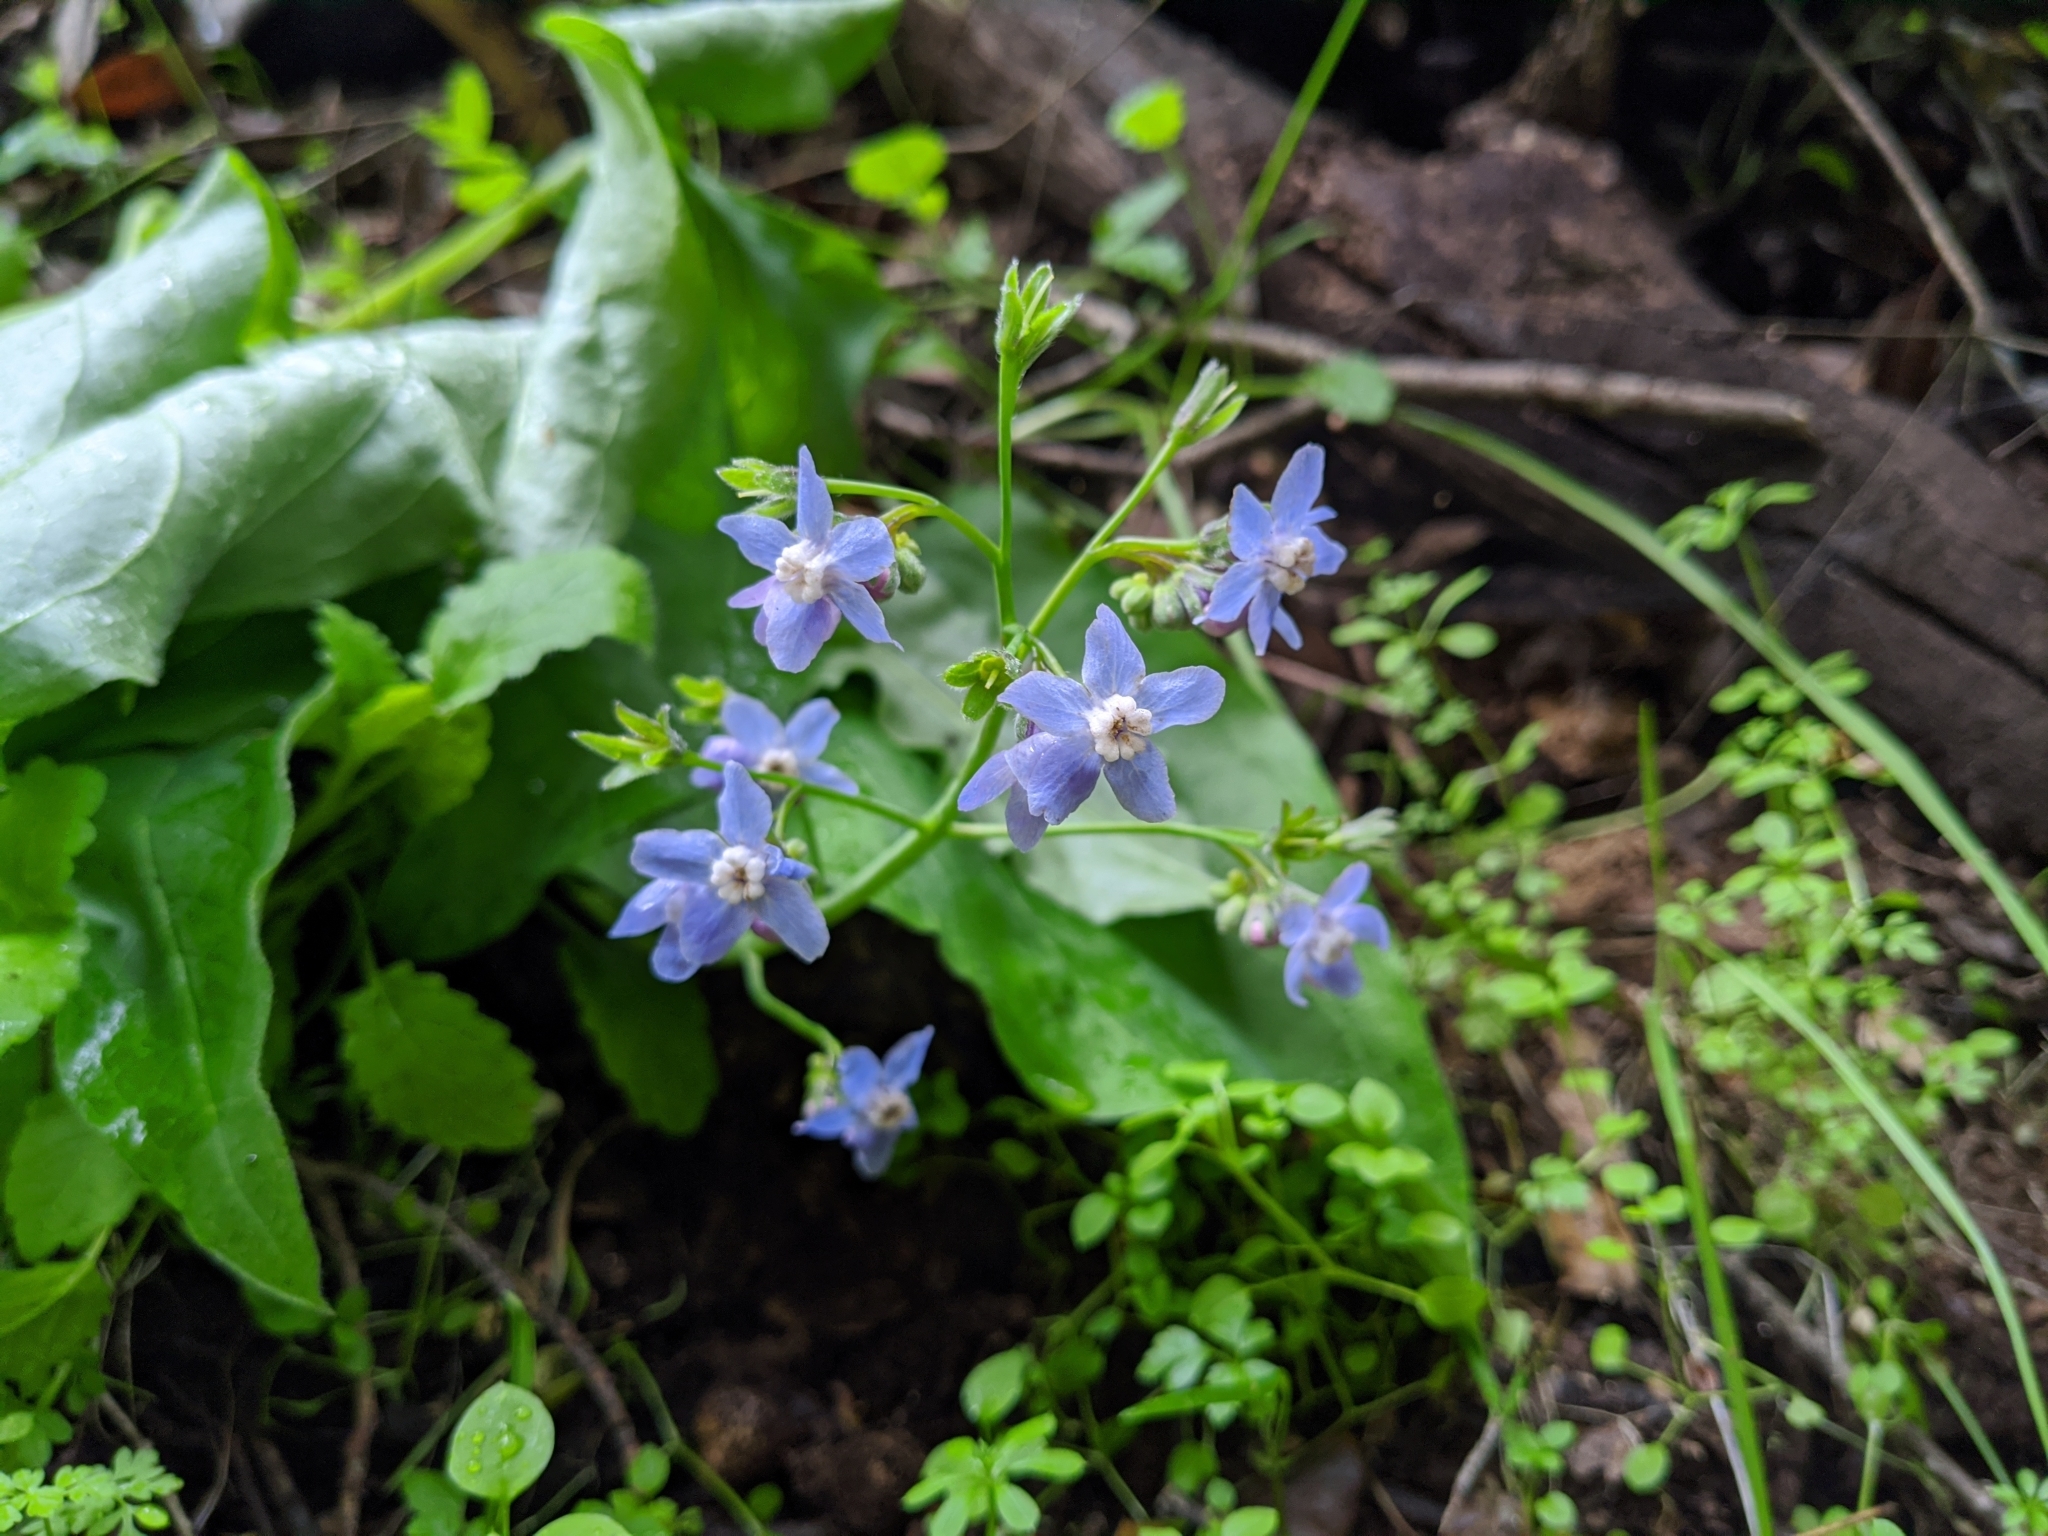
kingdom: Plantae
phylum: Tracheophyta
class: Magnoliopsida
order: Boraginales
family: Boraginaceae
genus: Adelinia
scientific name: Adelinia grande
